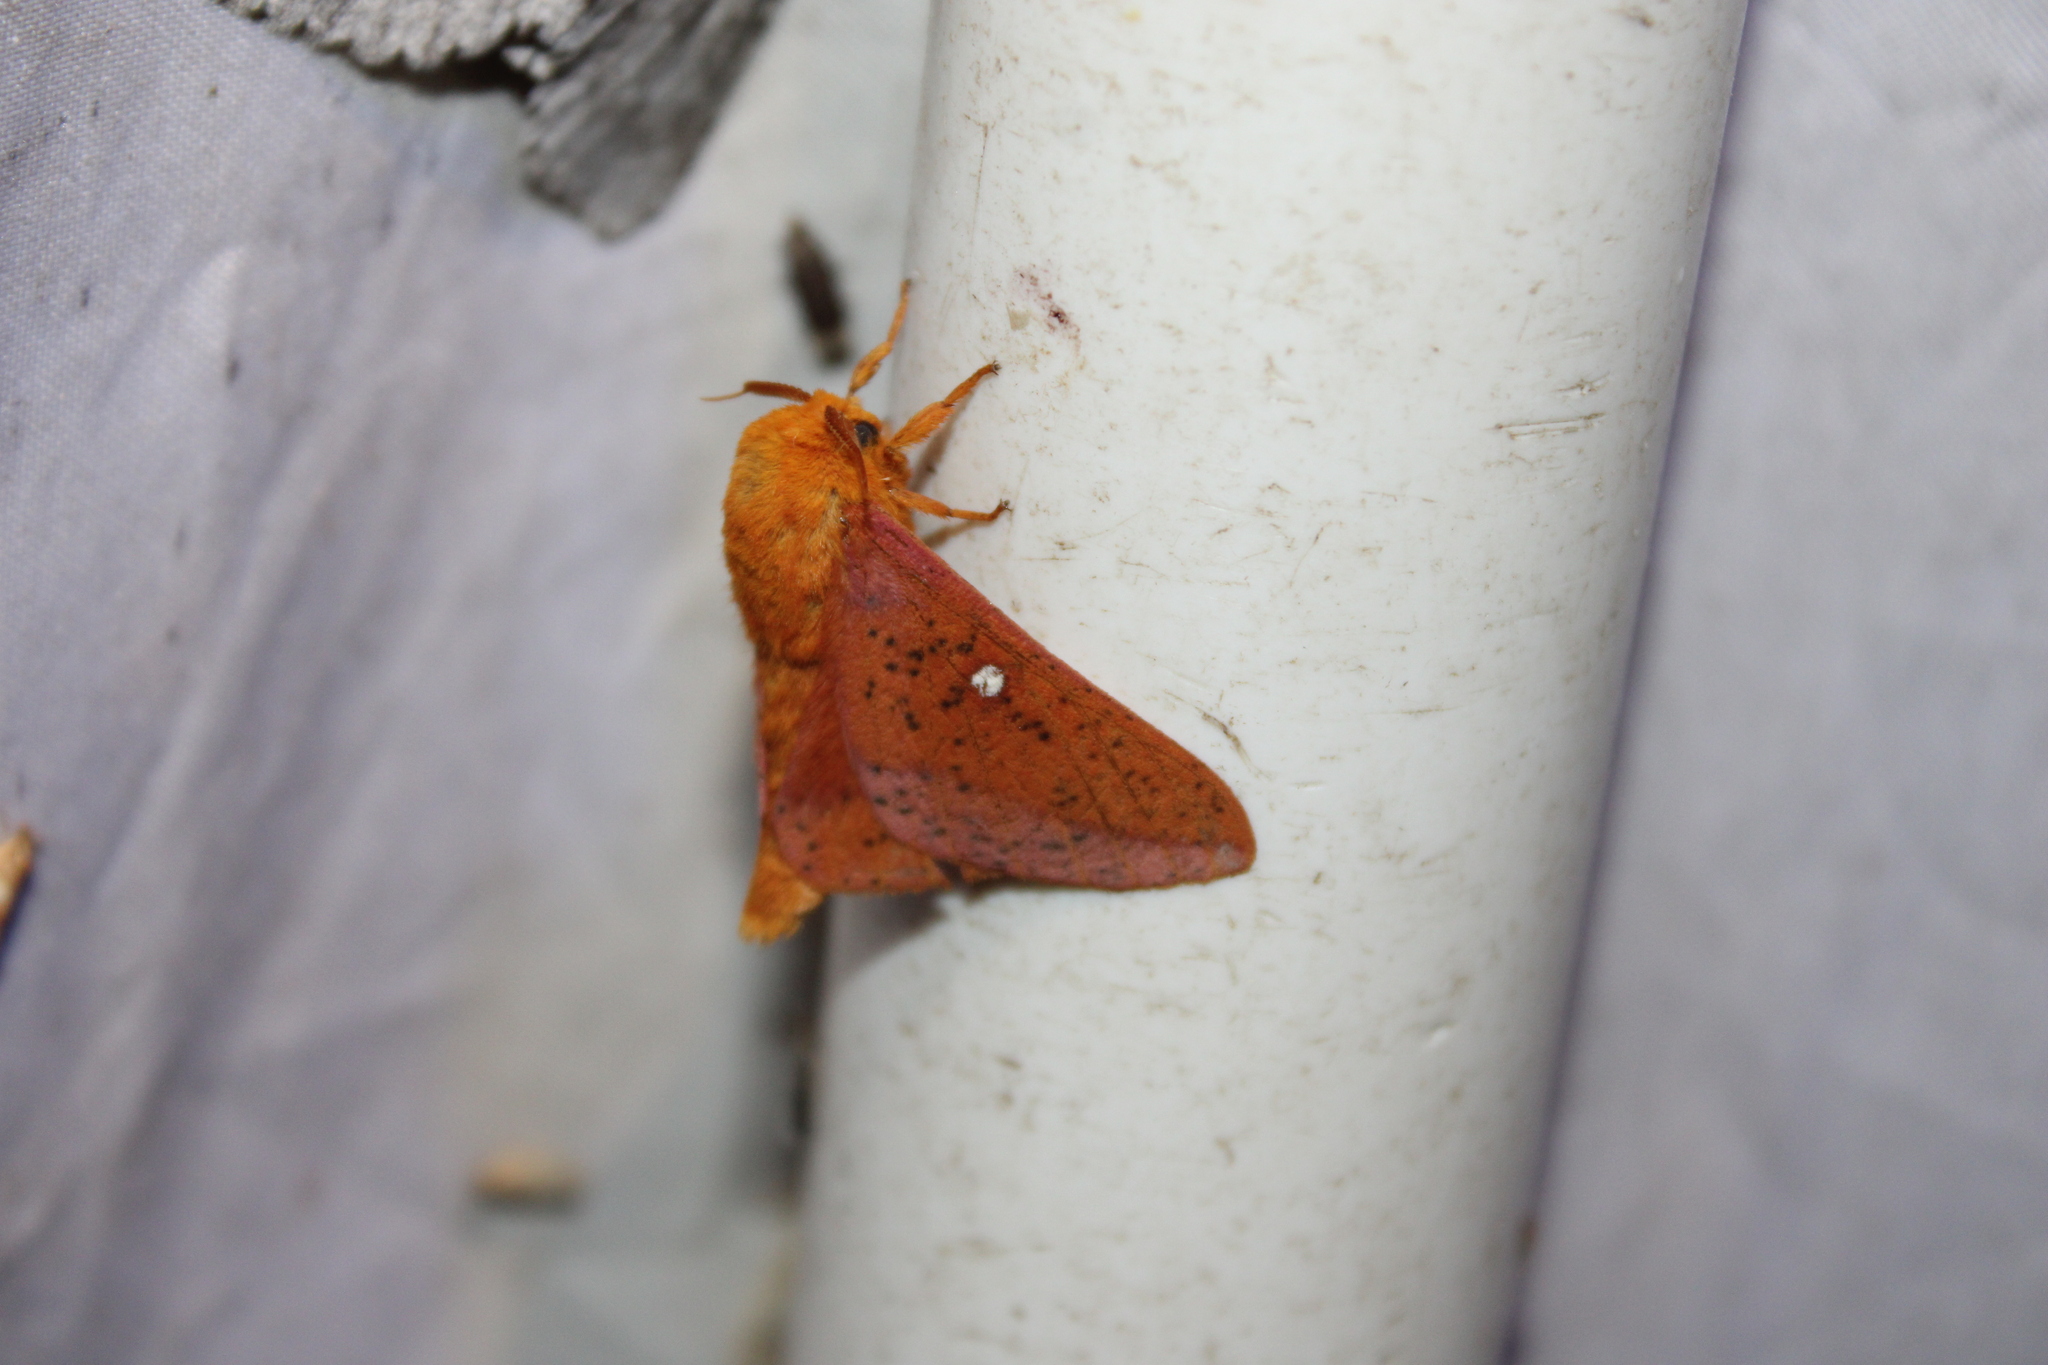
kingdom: Animalia
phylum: Arthropoda
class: Insecta
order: Lepidoptera
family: Saturniidae
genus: Anisota
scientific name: Anisota stigma
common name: Spiny oakworm moth
